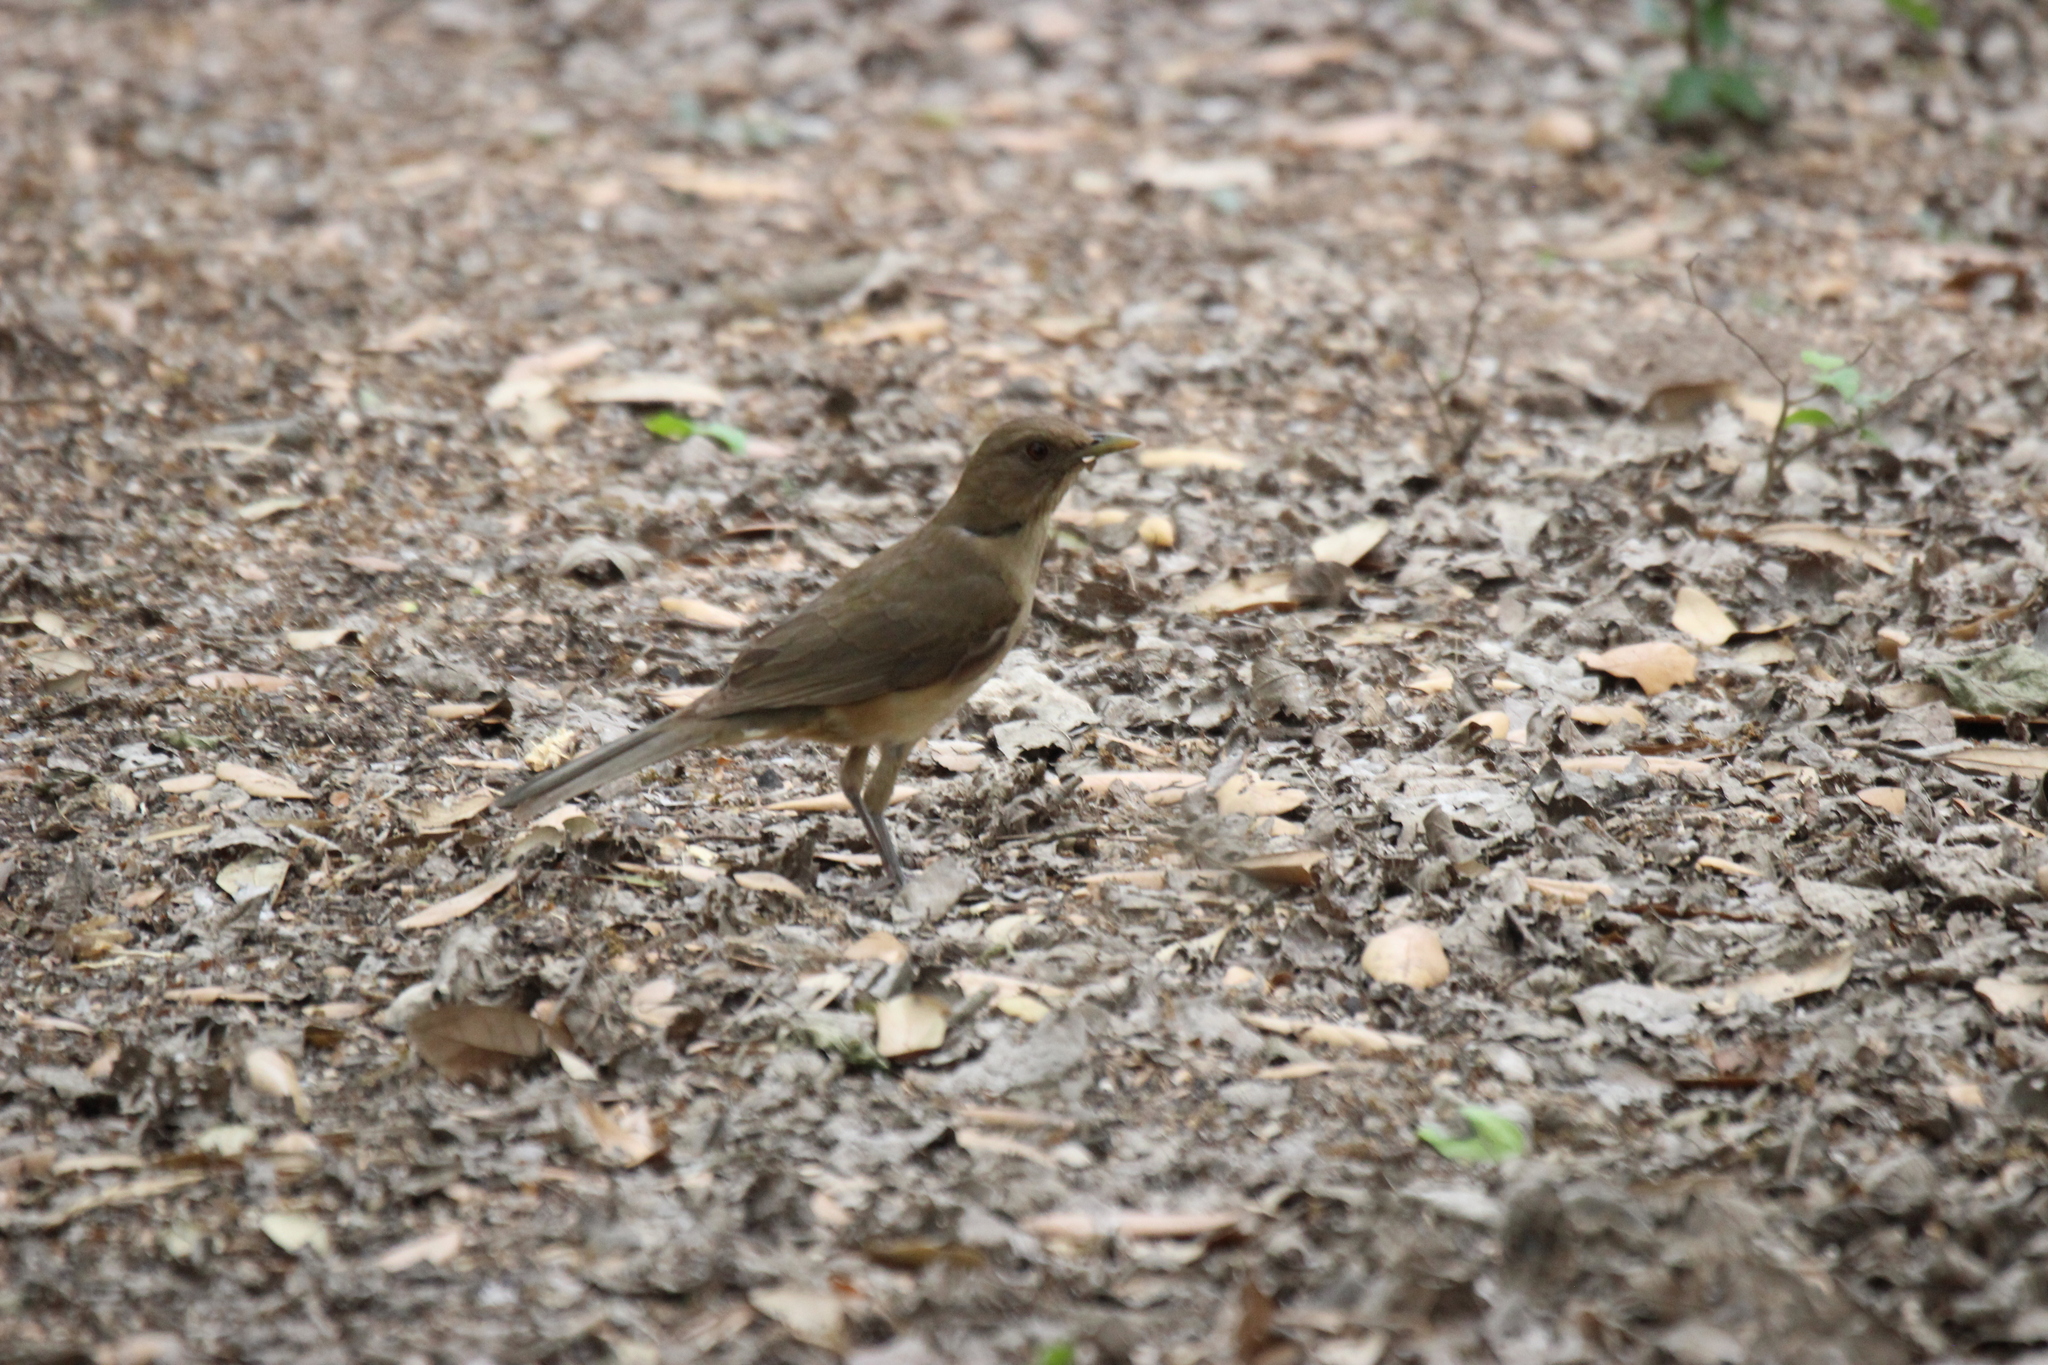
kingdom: Animalia
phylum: Chordata
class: Aves
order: Passeriformes
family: Turdidae
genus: Turdus
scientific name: Turdus grayi
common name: Clay-colored thrush
